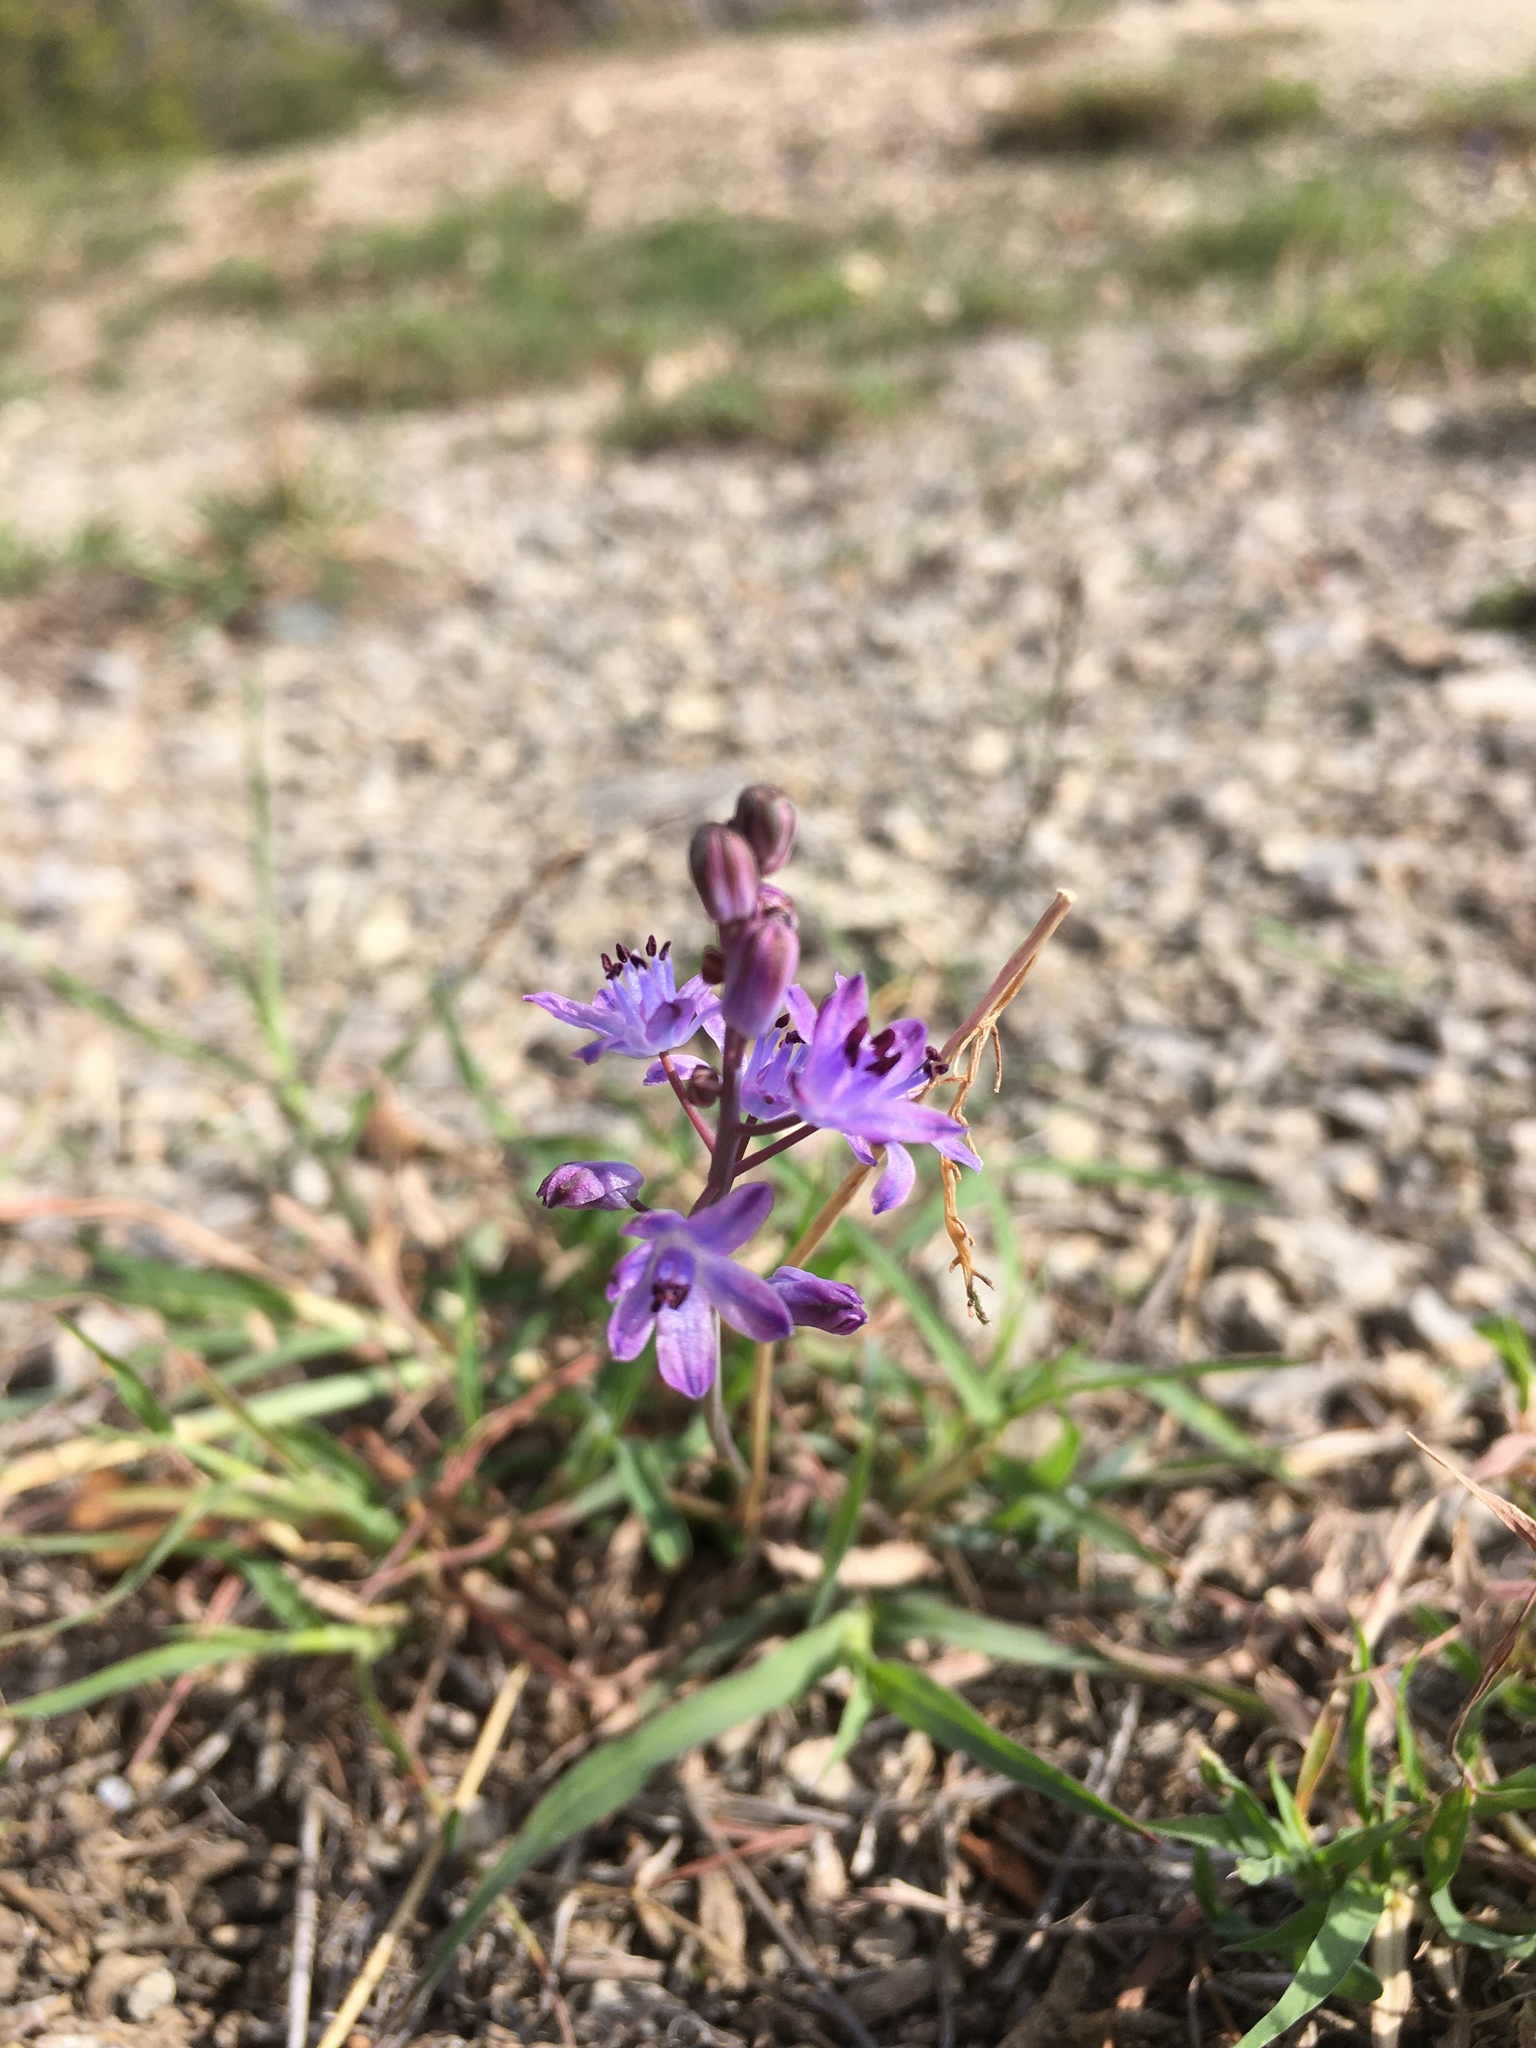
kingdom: Plantae
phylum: Tracheophyta
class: Liliopsida
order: Asparagales
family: Asparagaceae
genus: Prospero
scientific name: Prospero autumnale
